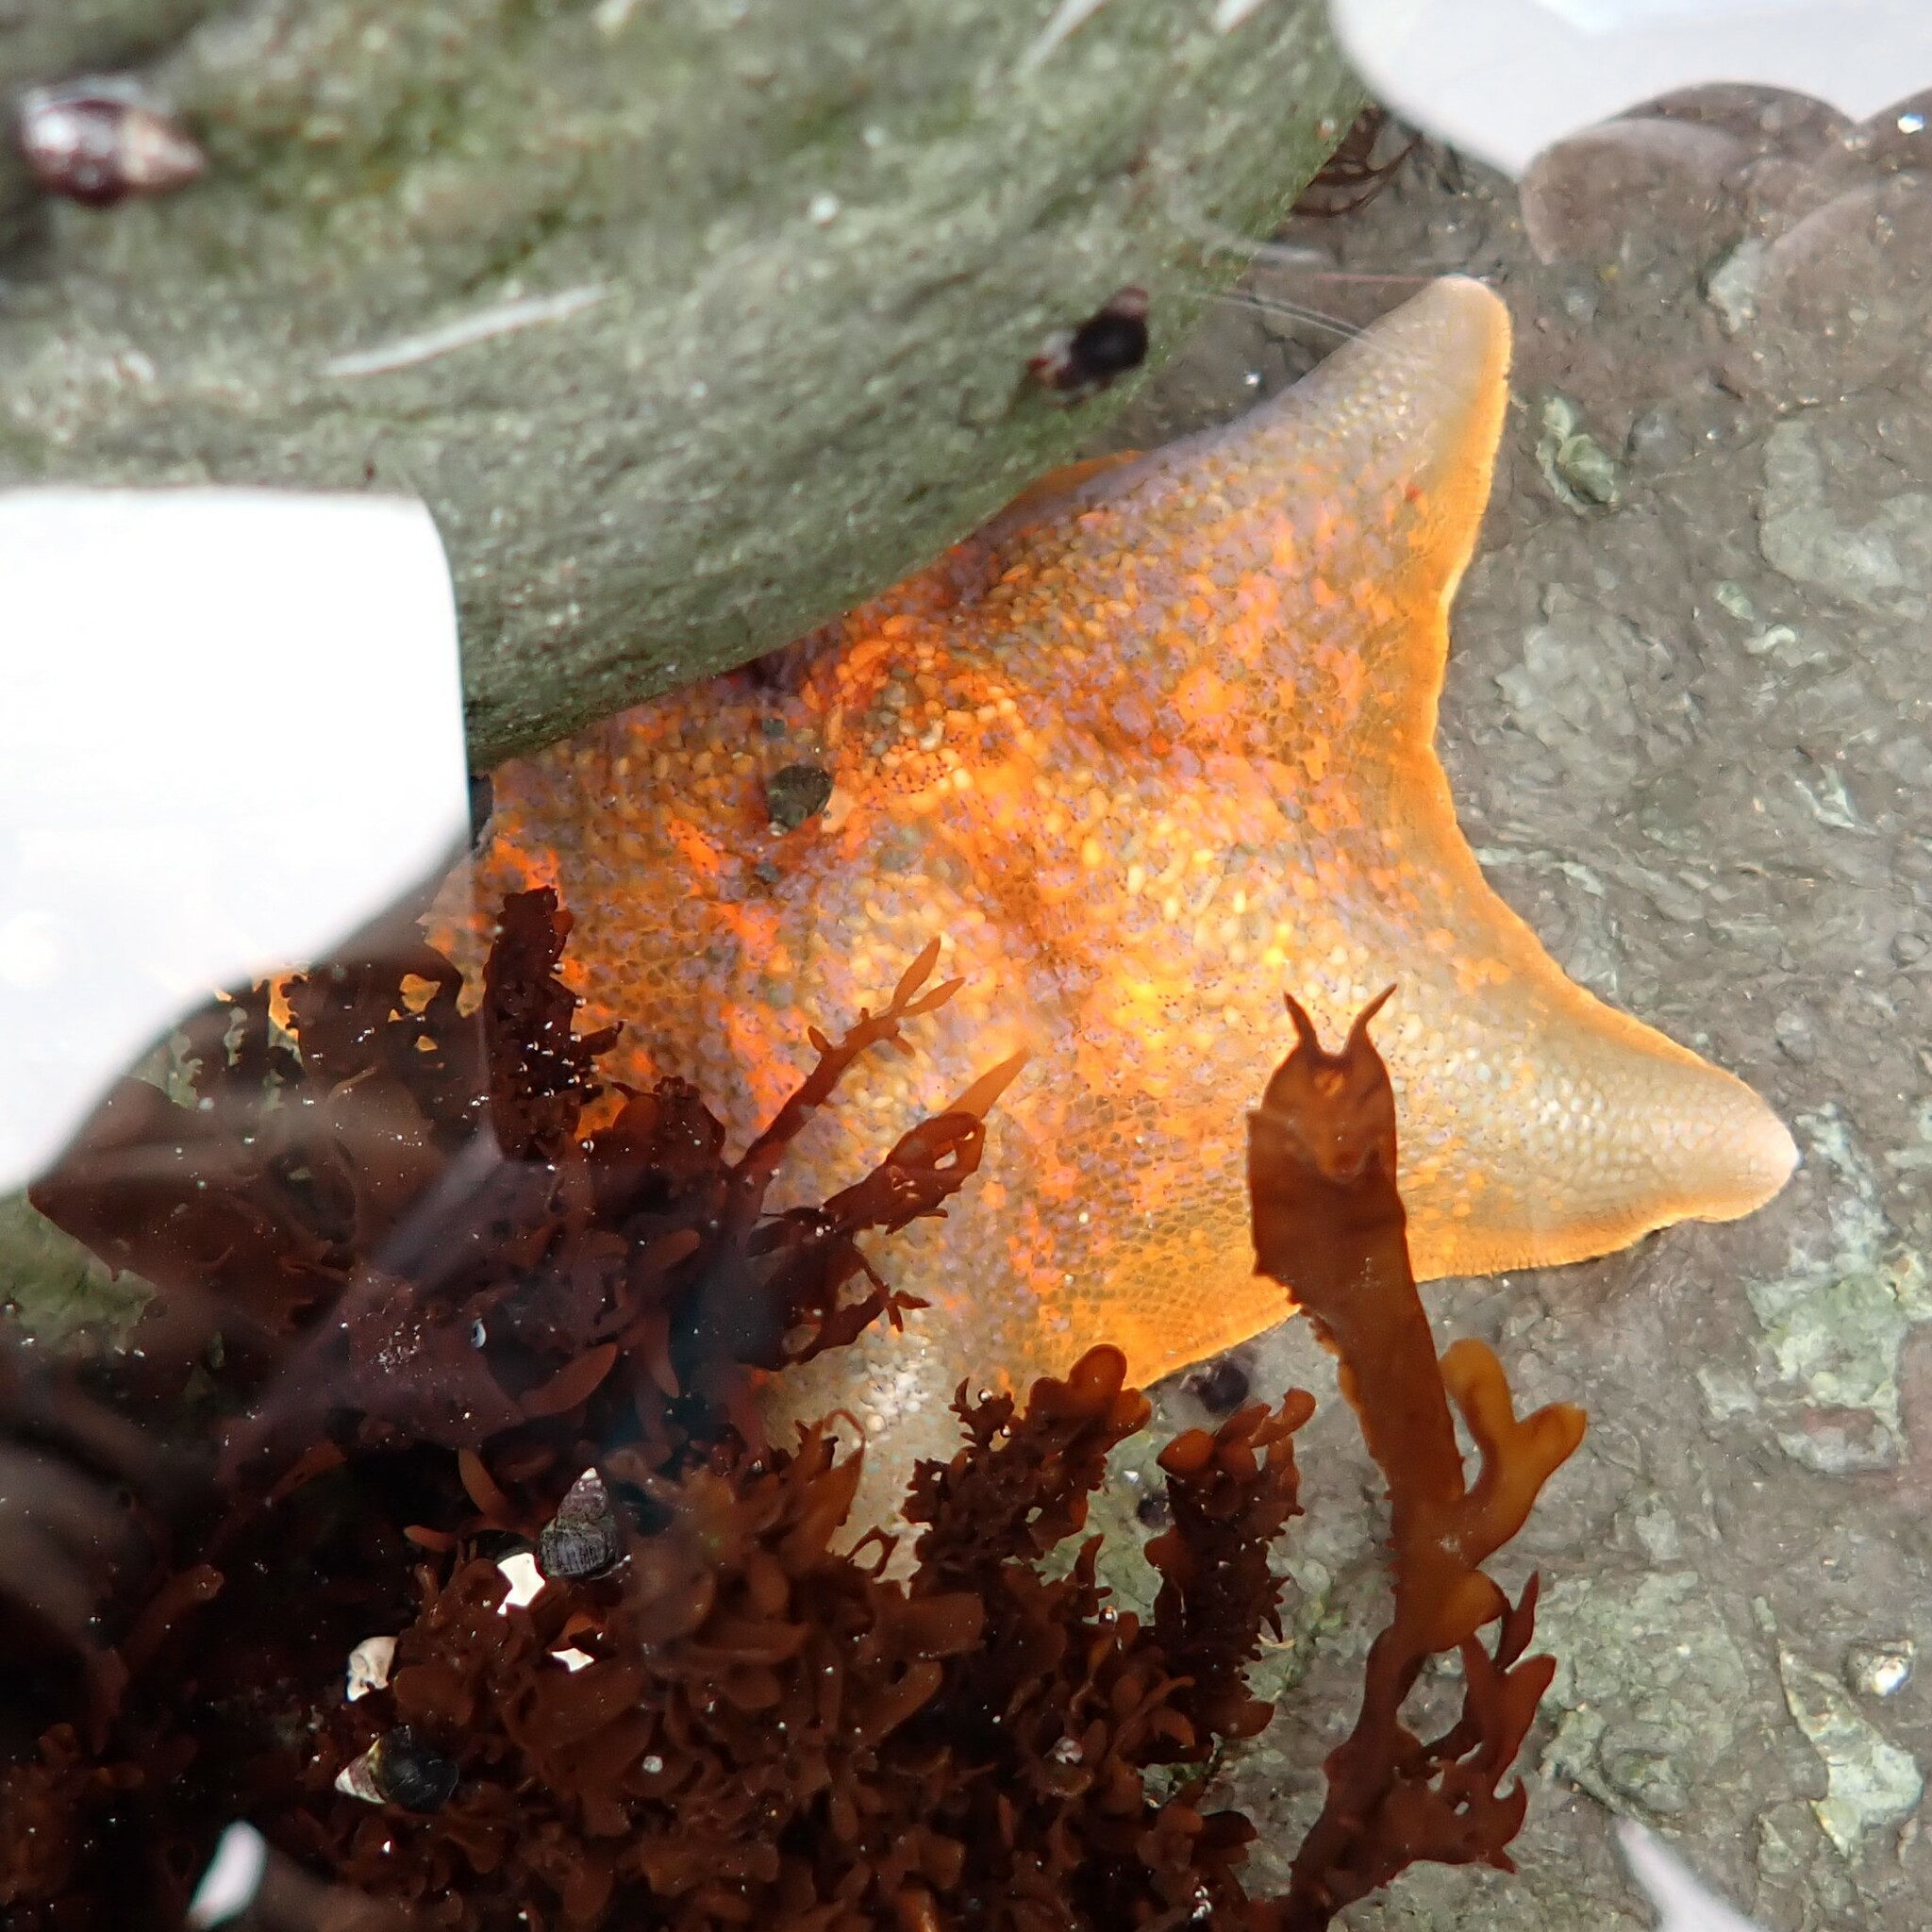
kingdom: Animalia
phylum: Echinodermata
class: Asteroidea
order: Valvatida
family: Asterinidae
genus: Patiria
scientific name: Patiria miniata
